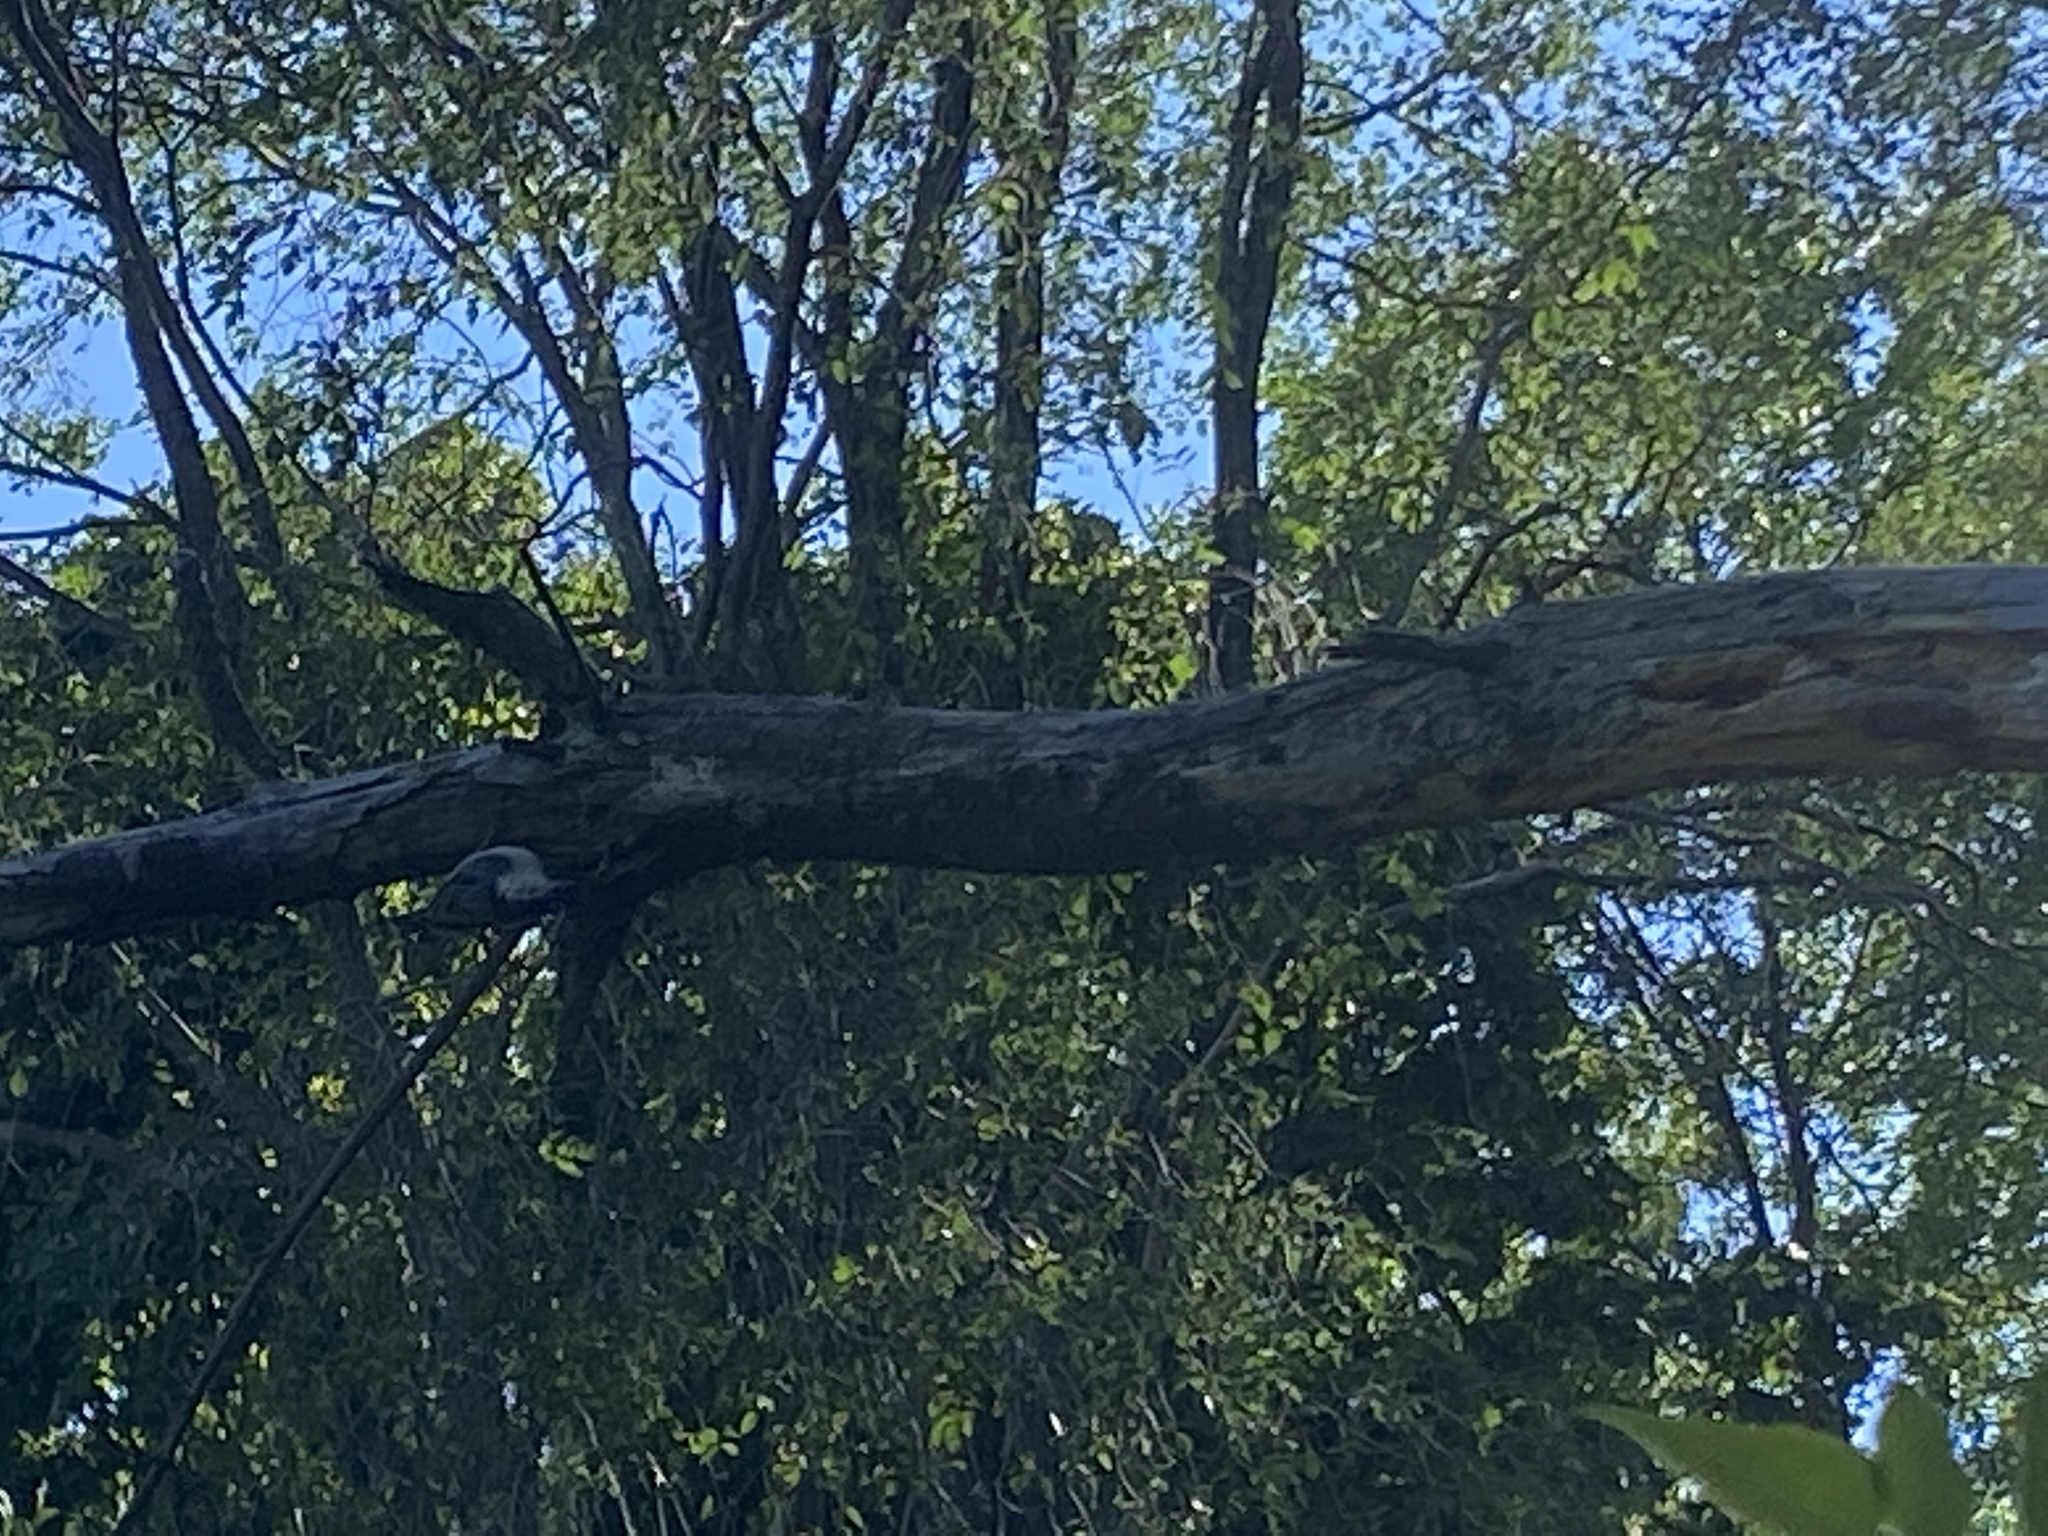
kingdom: Animalia
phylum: Chordata
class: Aves
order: Passeriformes
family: Sittidae
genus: Sitta
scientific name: Sitta carolinensis
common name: White-breasted nuthatch
